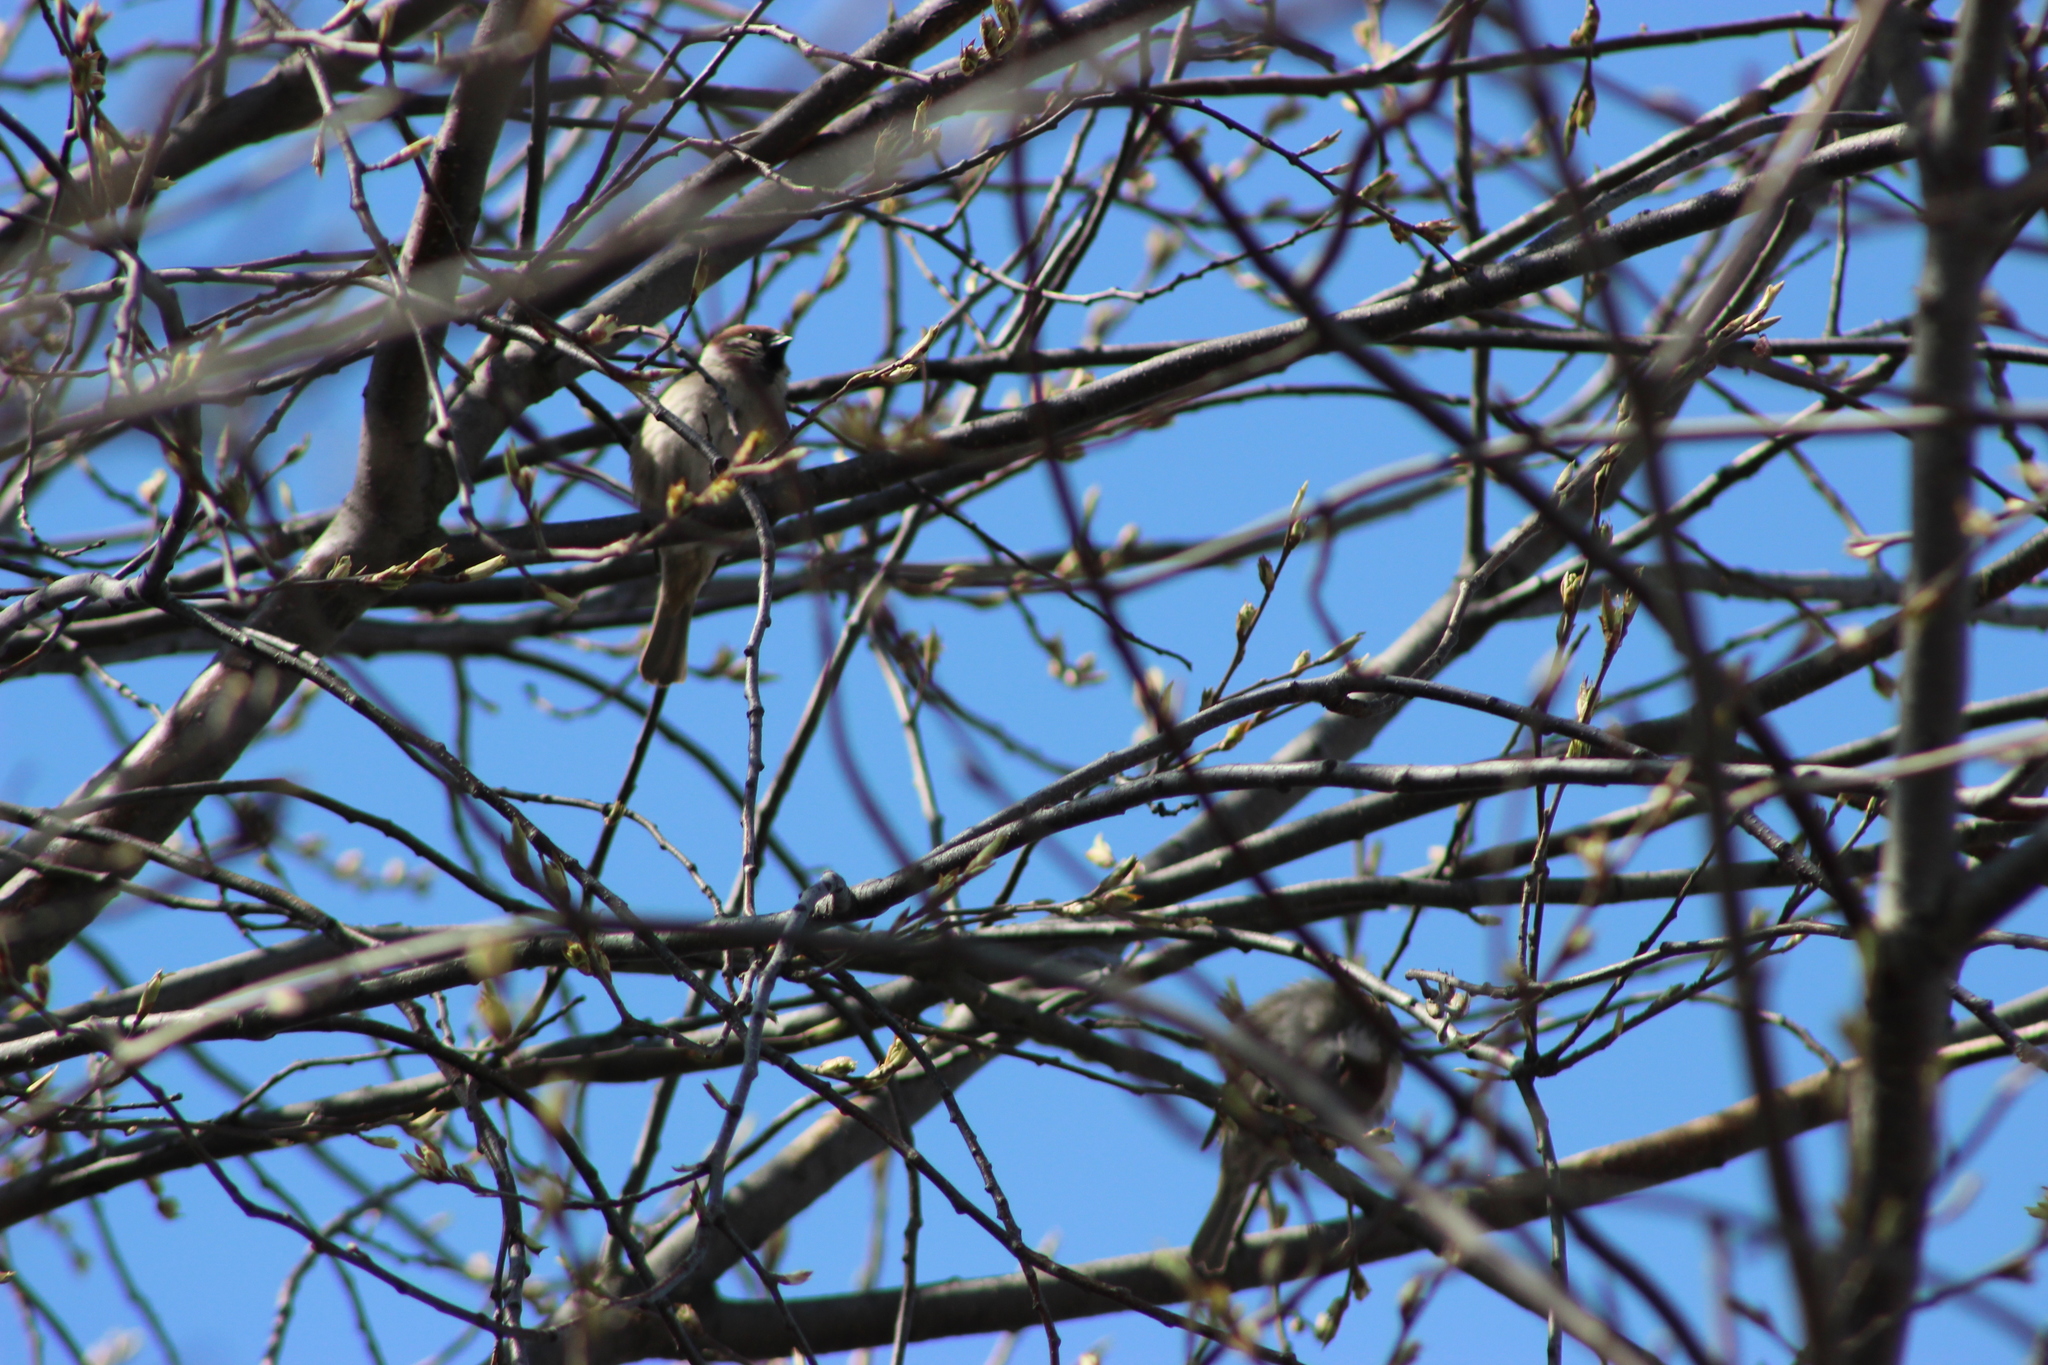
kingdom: Animalia
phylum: Chordata
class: Aves
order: Passeriformes
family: Passeridae
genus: Passer
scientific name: Passer montanus
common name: Eurasian tree sparrow
